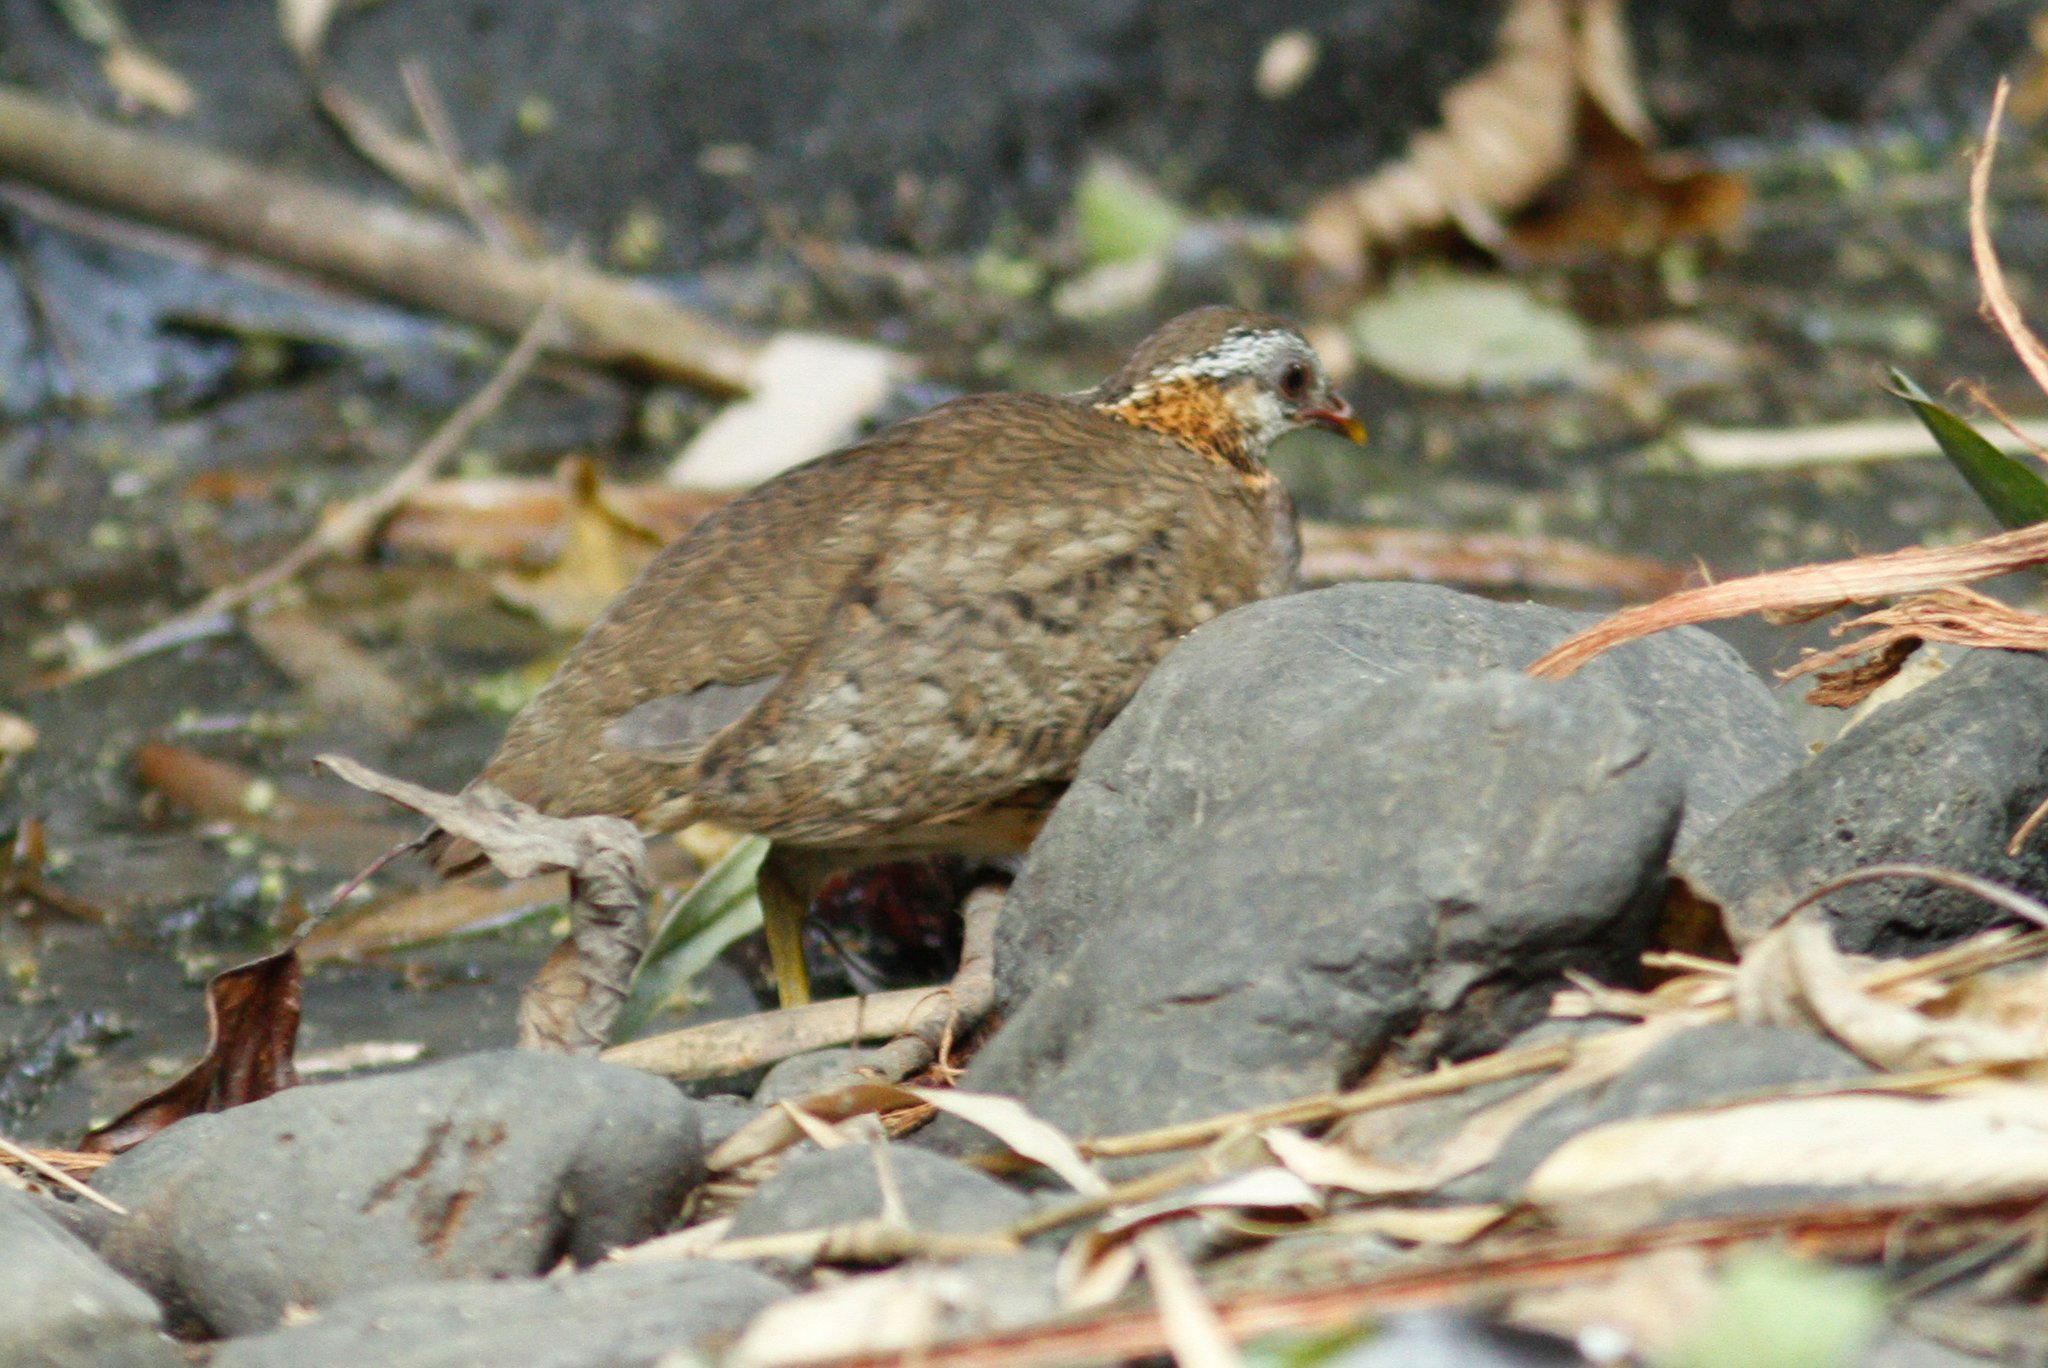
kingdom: Animalia
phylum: Chordata
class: Aves
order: Galliformes
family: Phasianidae
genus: Tropicoperdix
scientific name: Tropicoperdix chloropus
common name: Green-legged partridge
